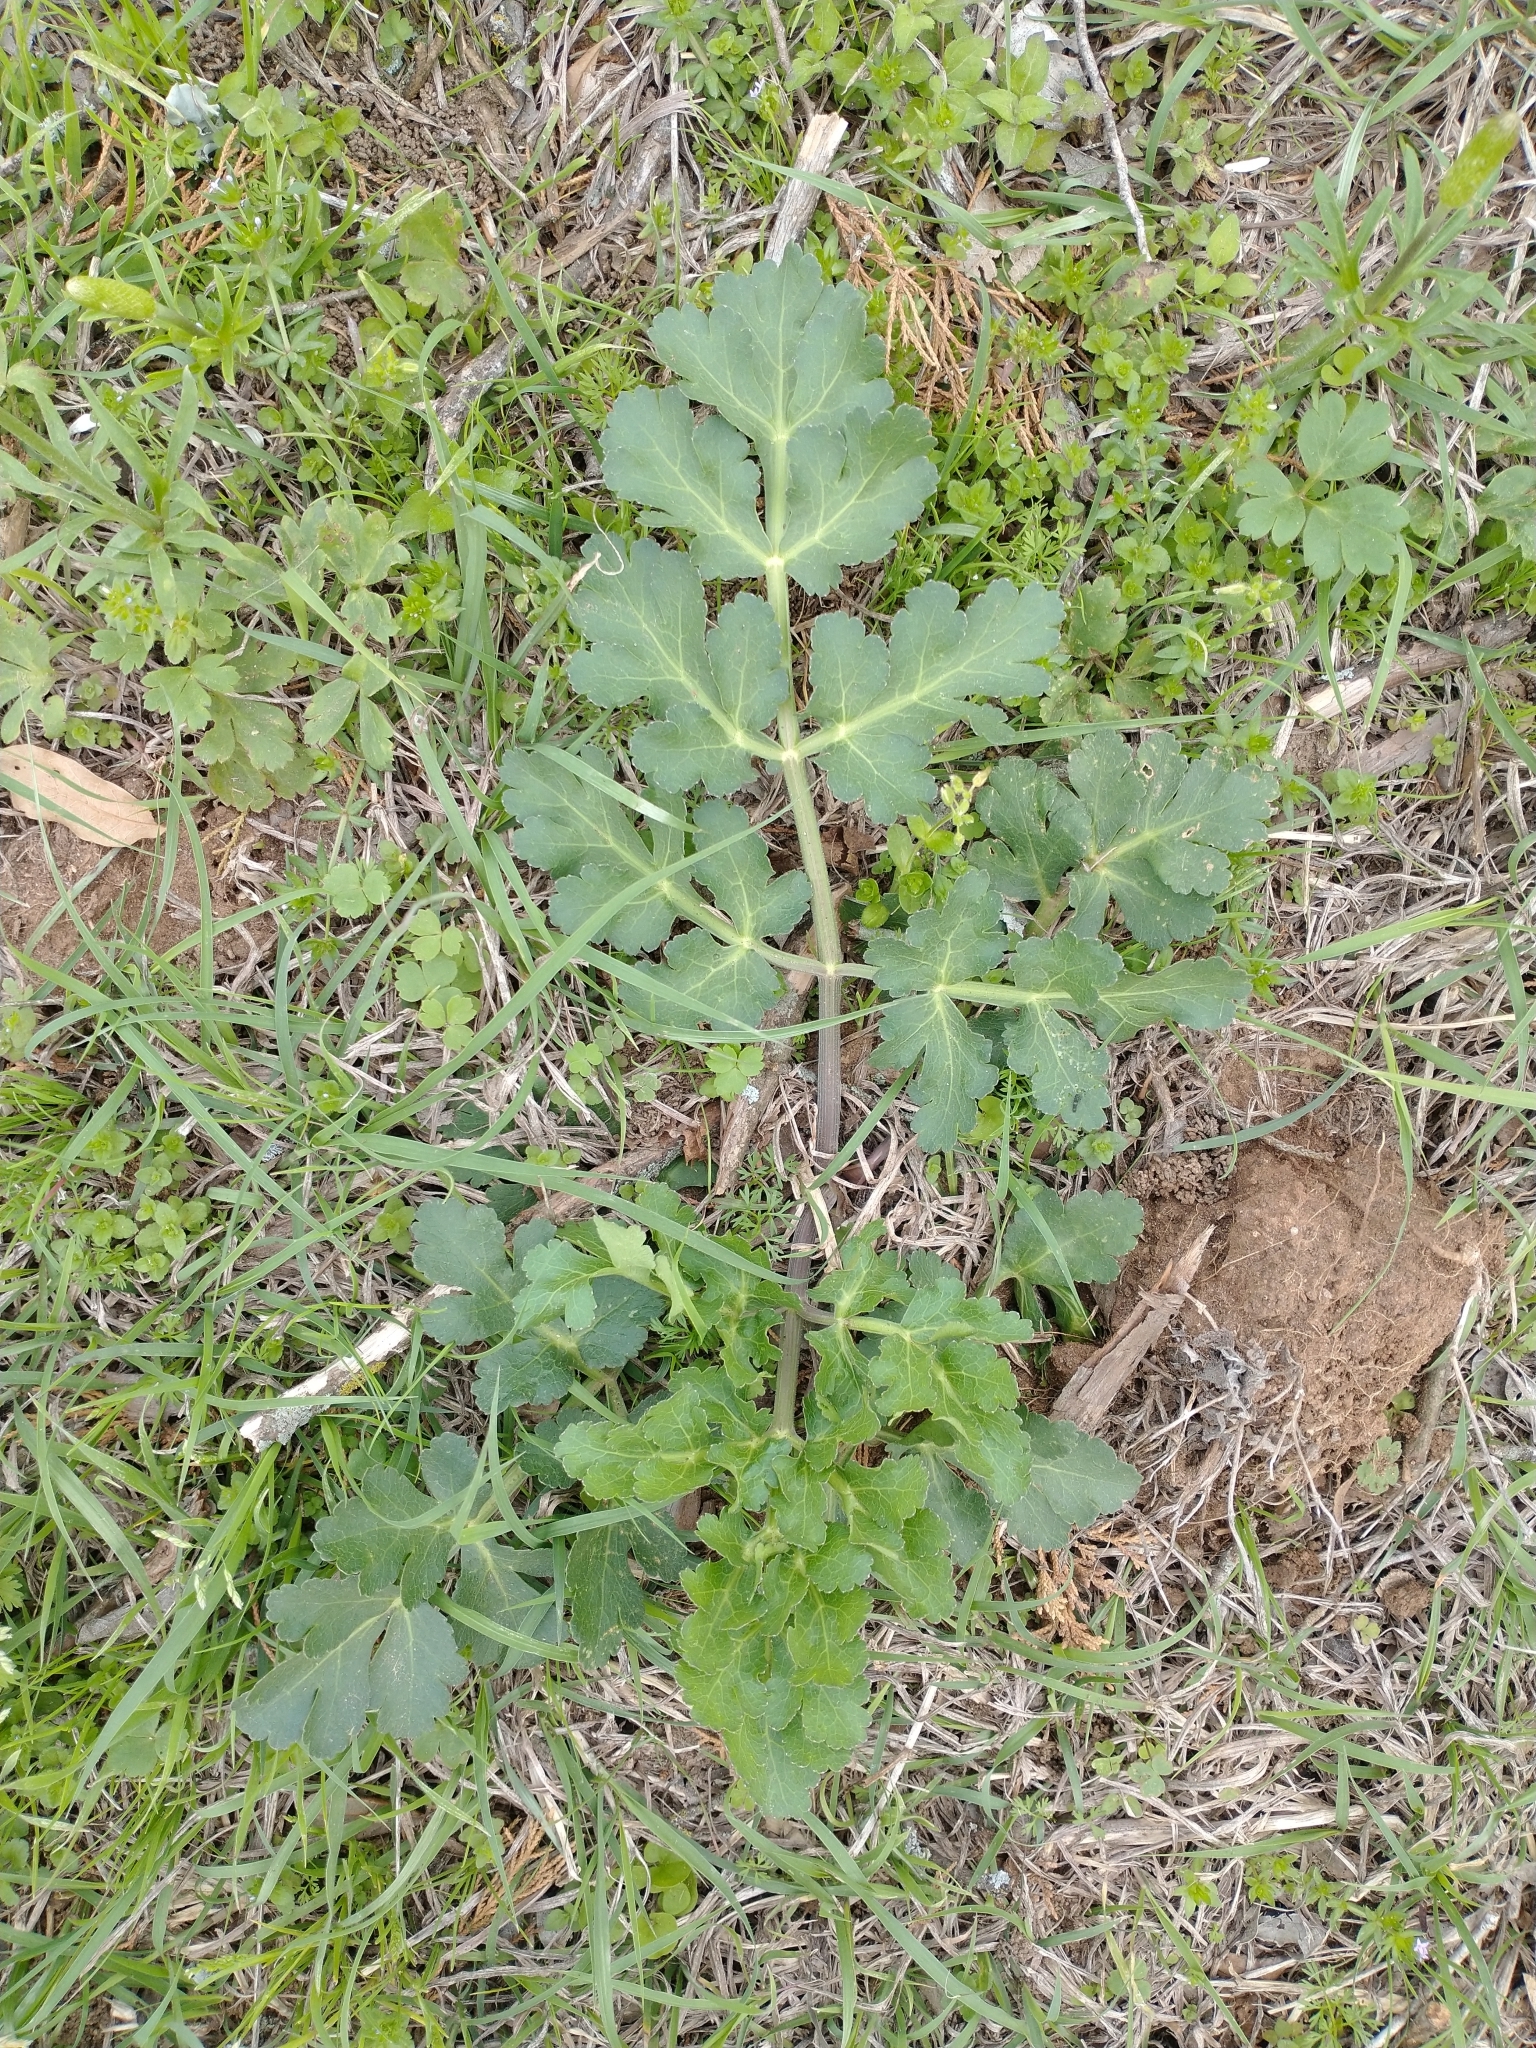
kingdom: Plantae
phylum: Tracheophyta
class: Magnoliopsida
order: Apiales
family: Apiaceae
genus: Polytaenia
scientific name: Polytaenia texana
